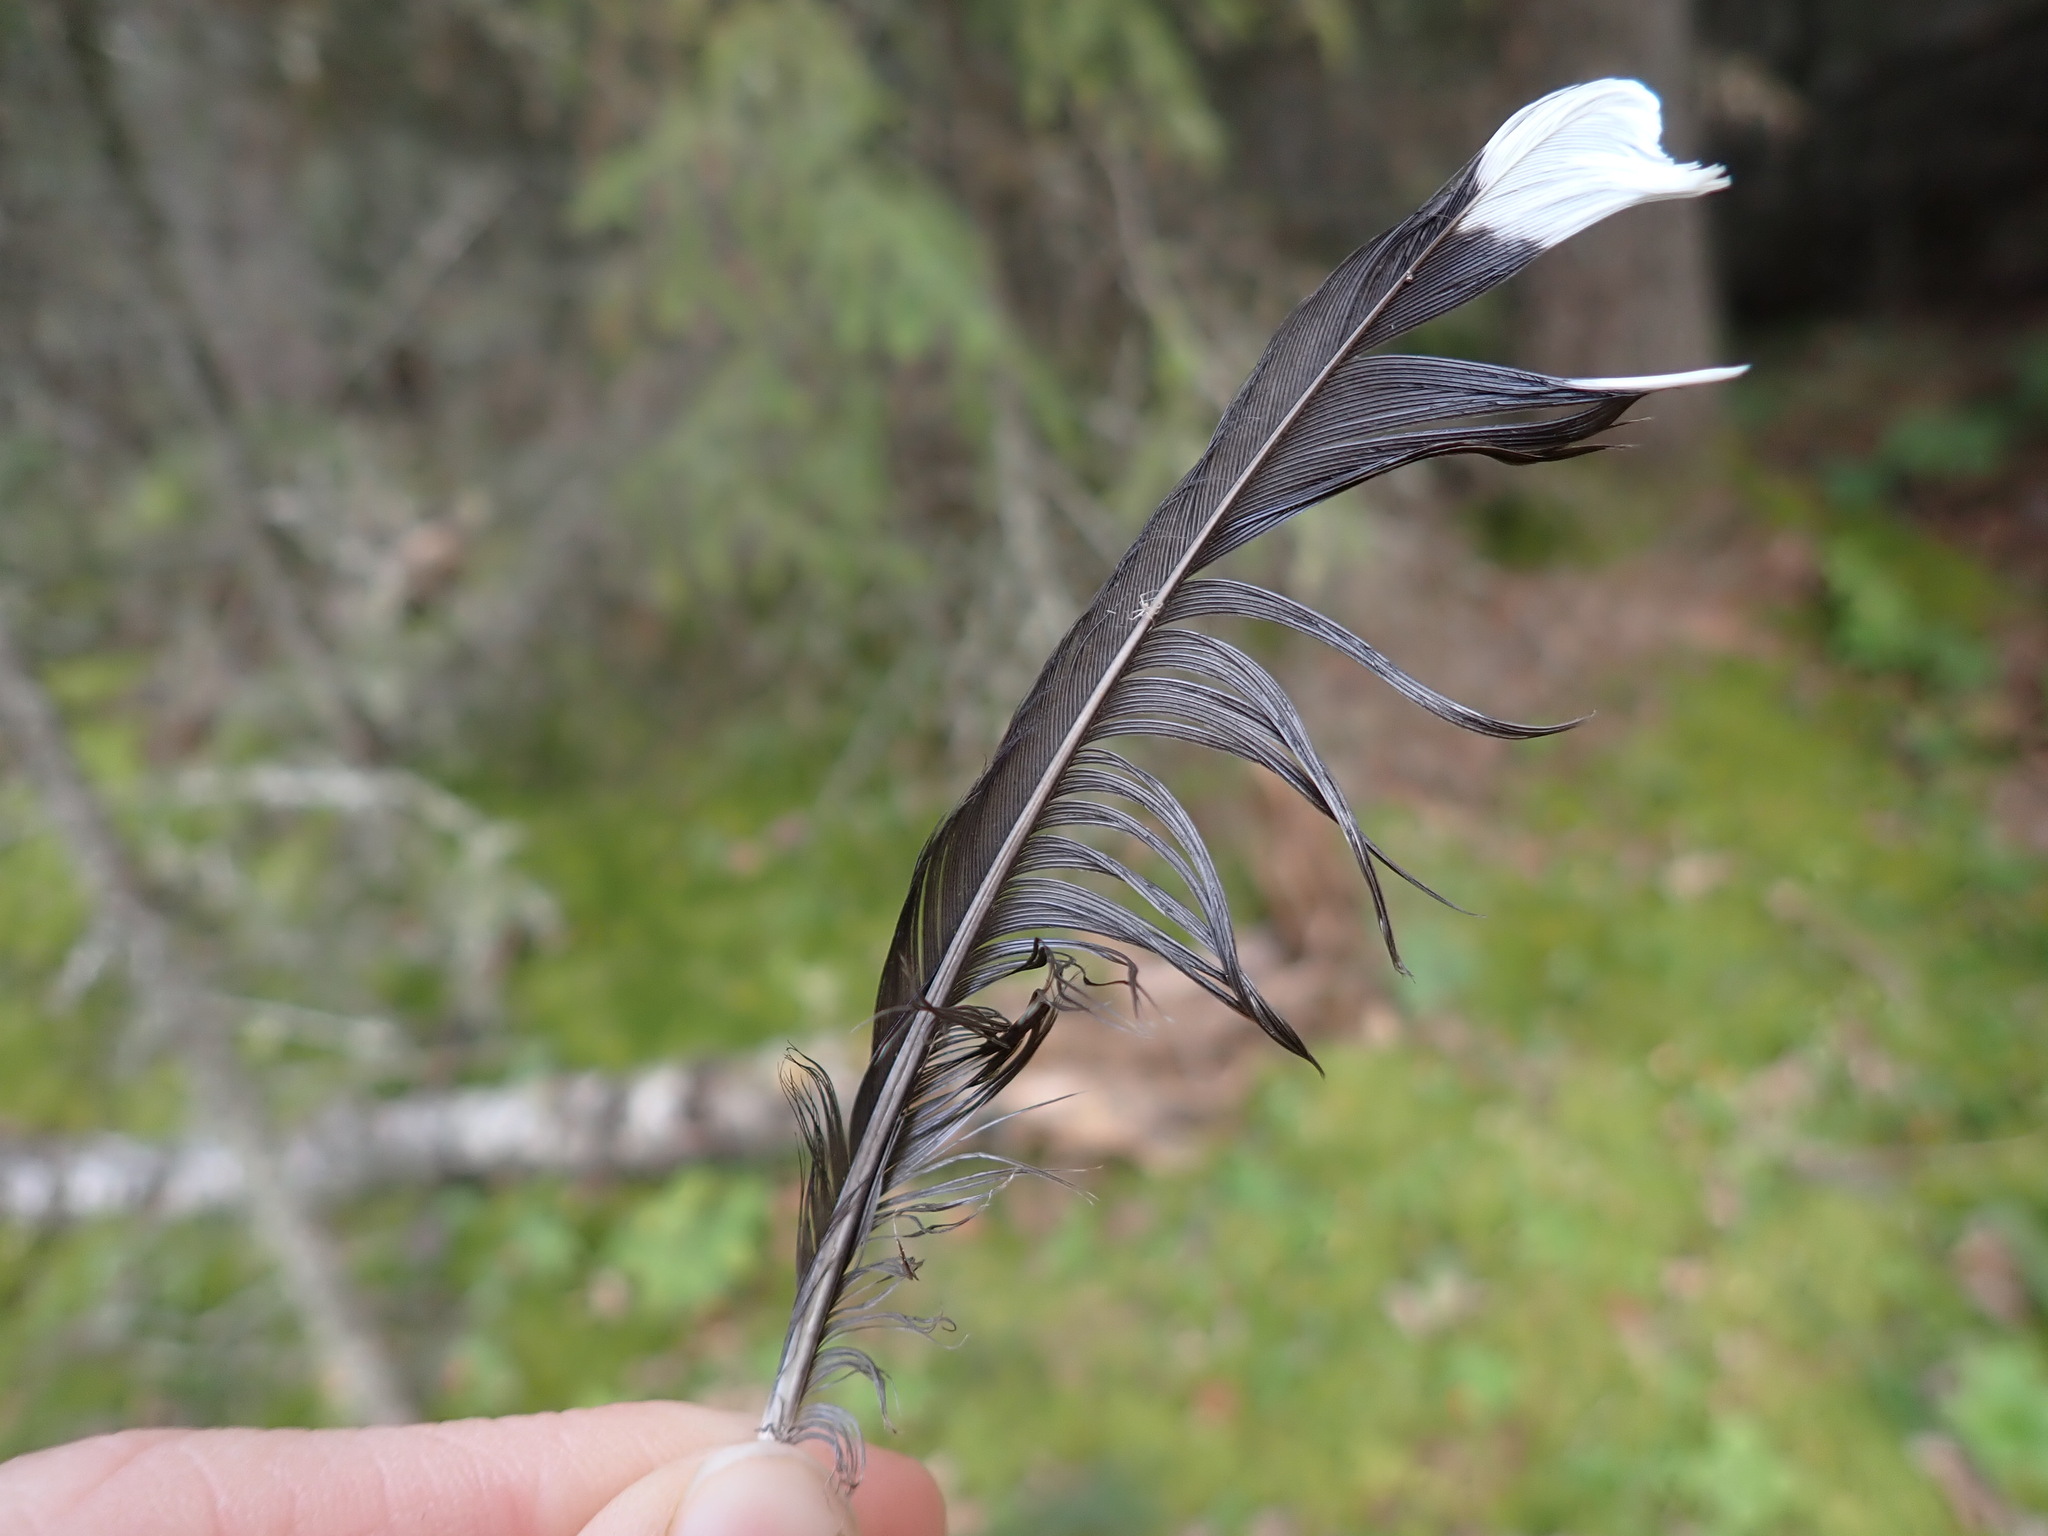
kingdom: Animalia
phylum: Chordata
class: Aves
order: Passeriformes
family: Corvidae
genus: Cyanocitta
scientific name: Cyanocitta cristata
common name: Blue jay
